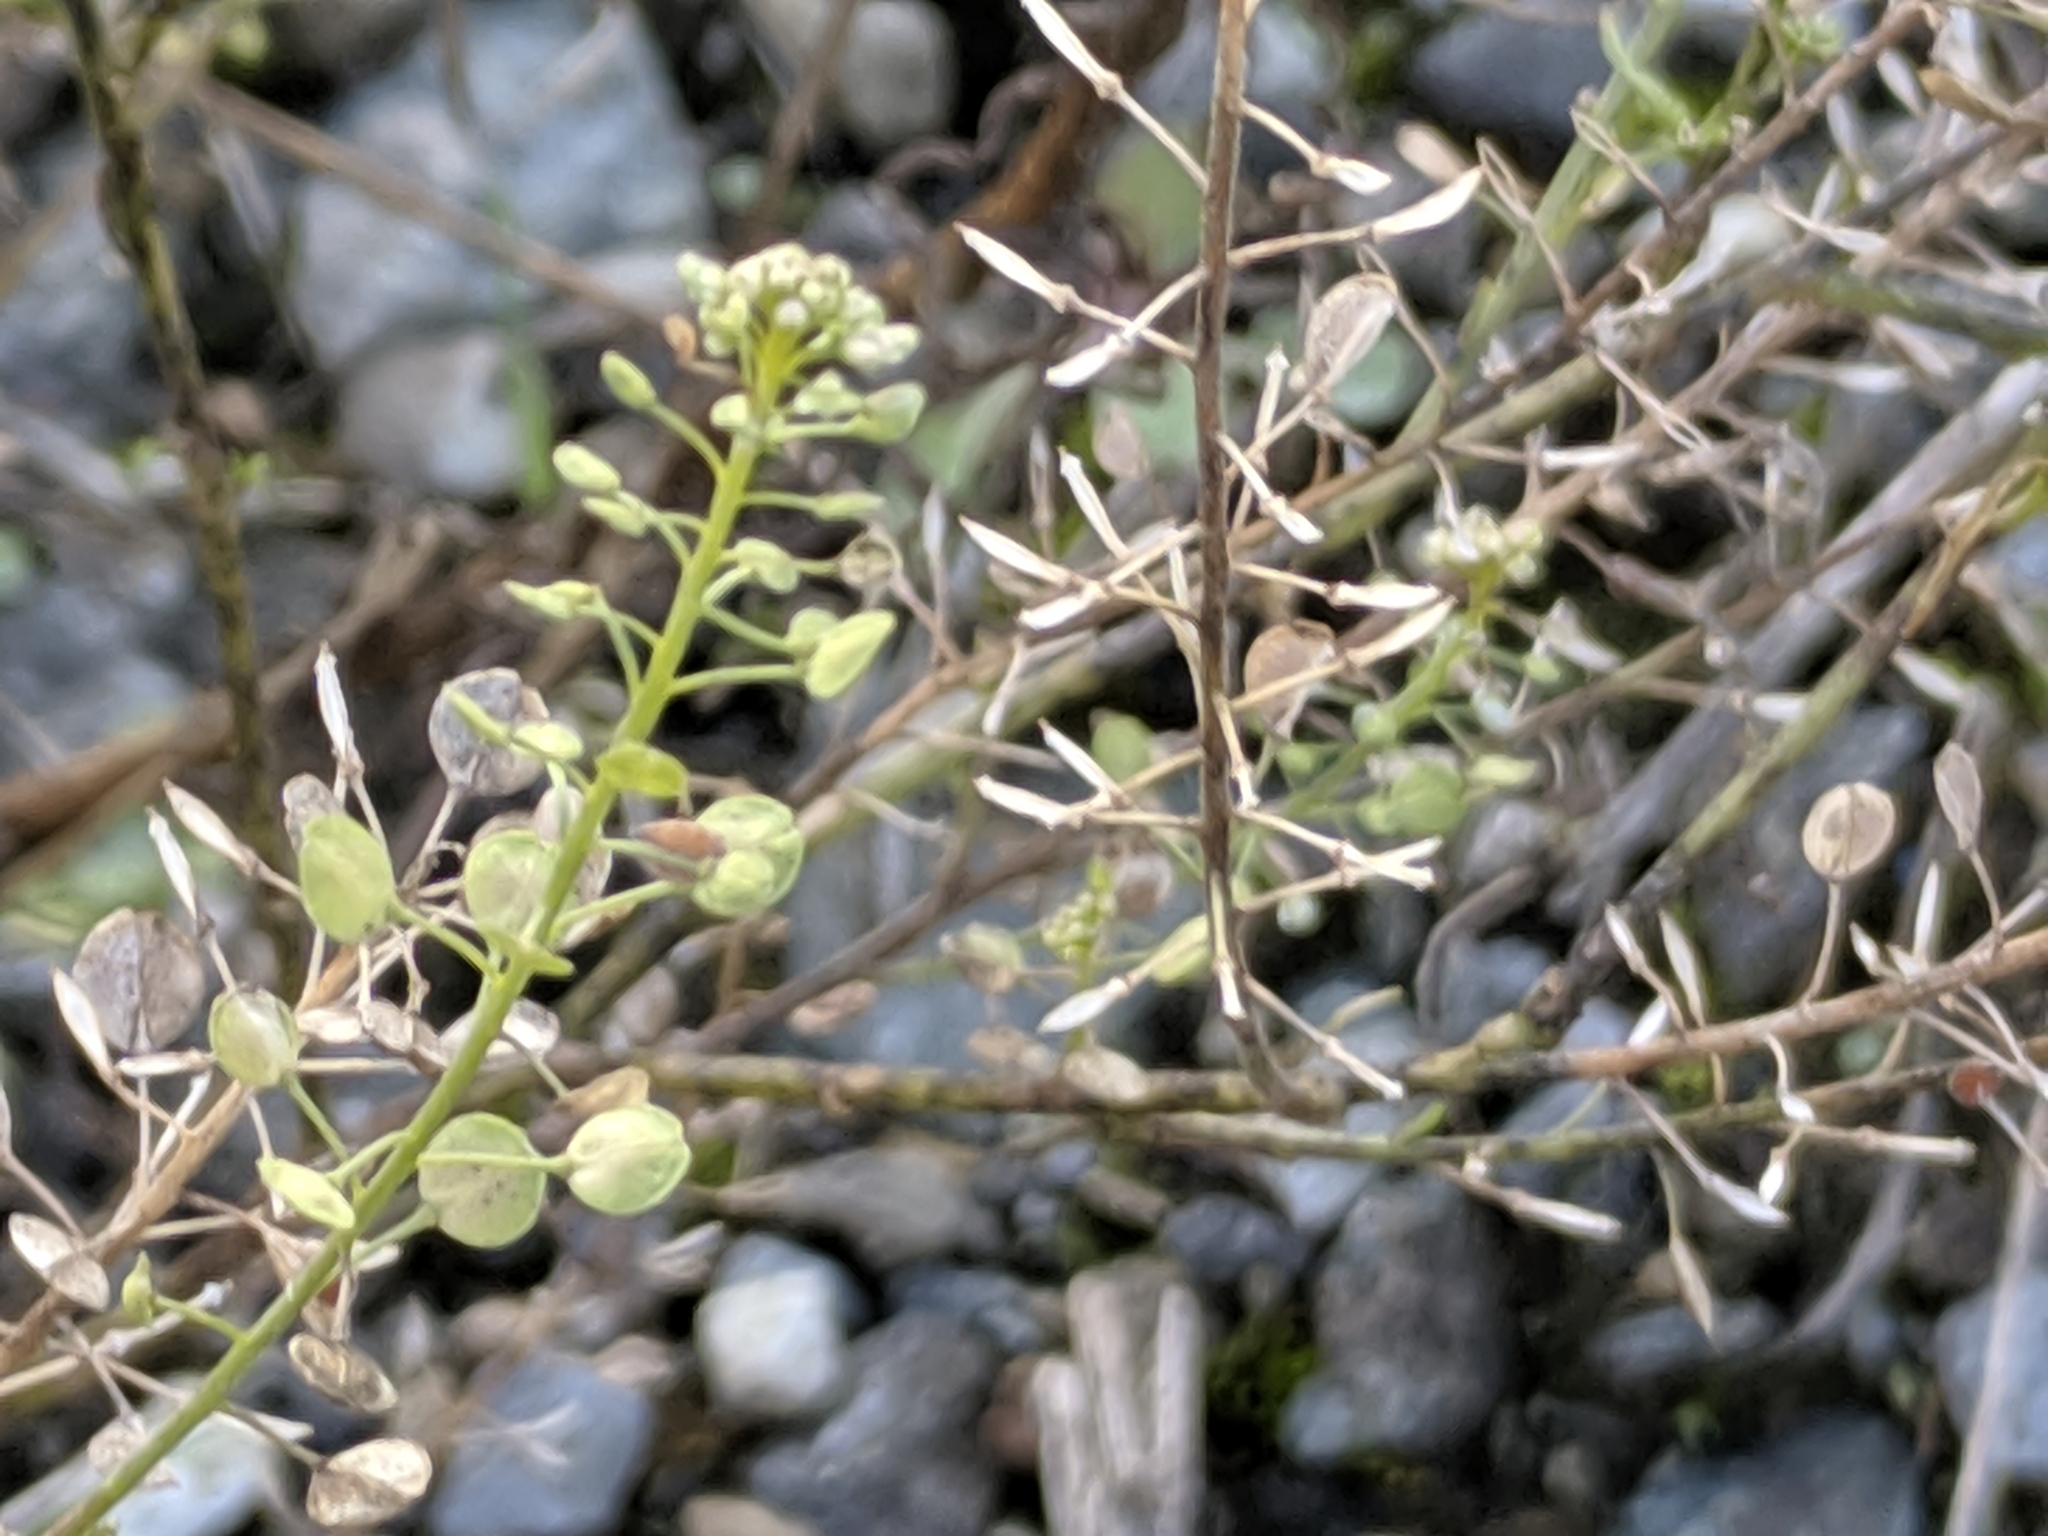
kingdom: Plantae
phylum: Tracheophyta
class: Magnoliopsida
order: Brassicales
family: Brassicaceae
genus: Lepidium
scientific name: Lepidium virginicum
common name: Least pepperwort
